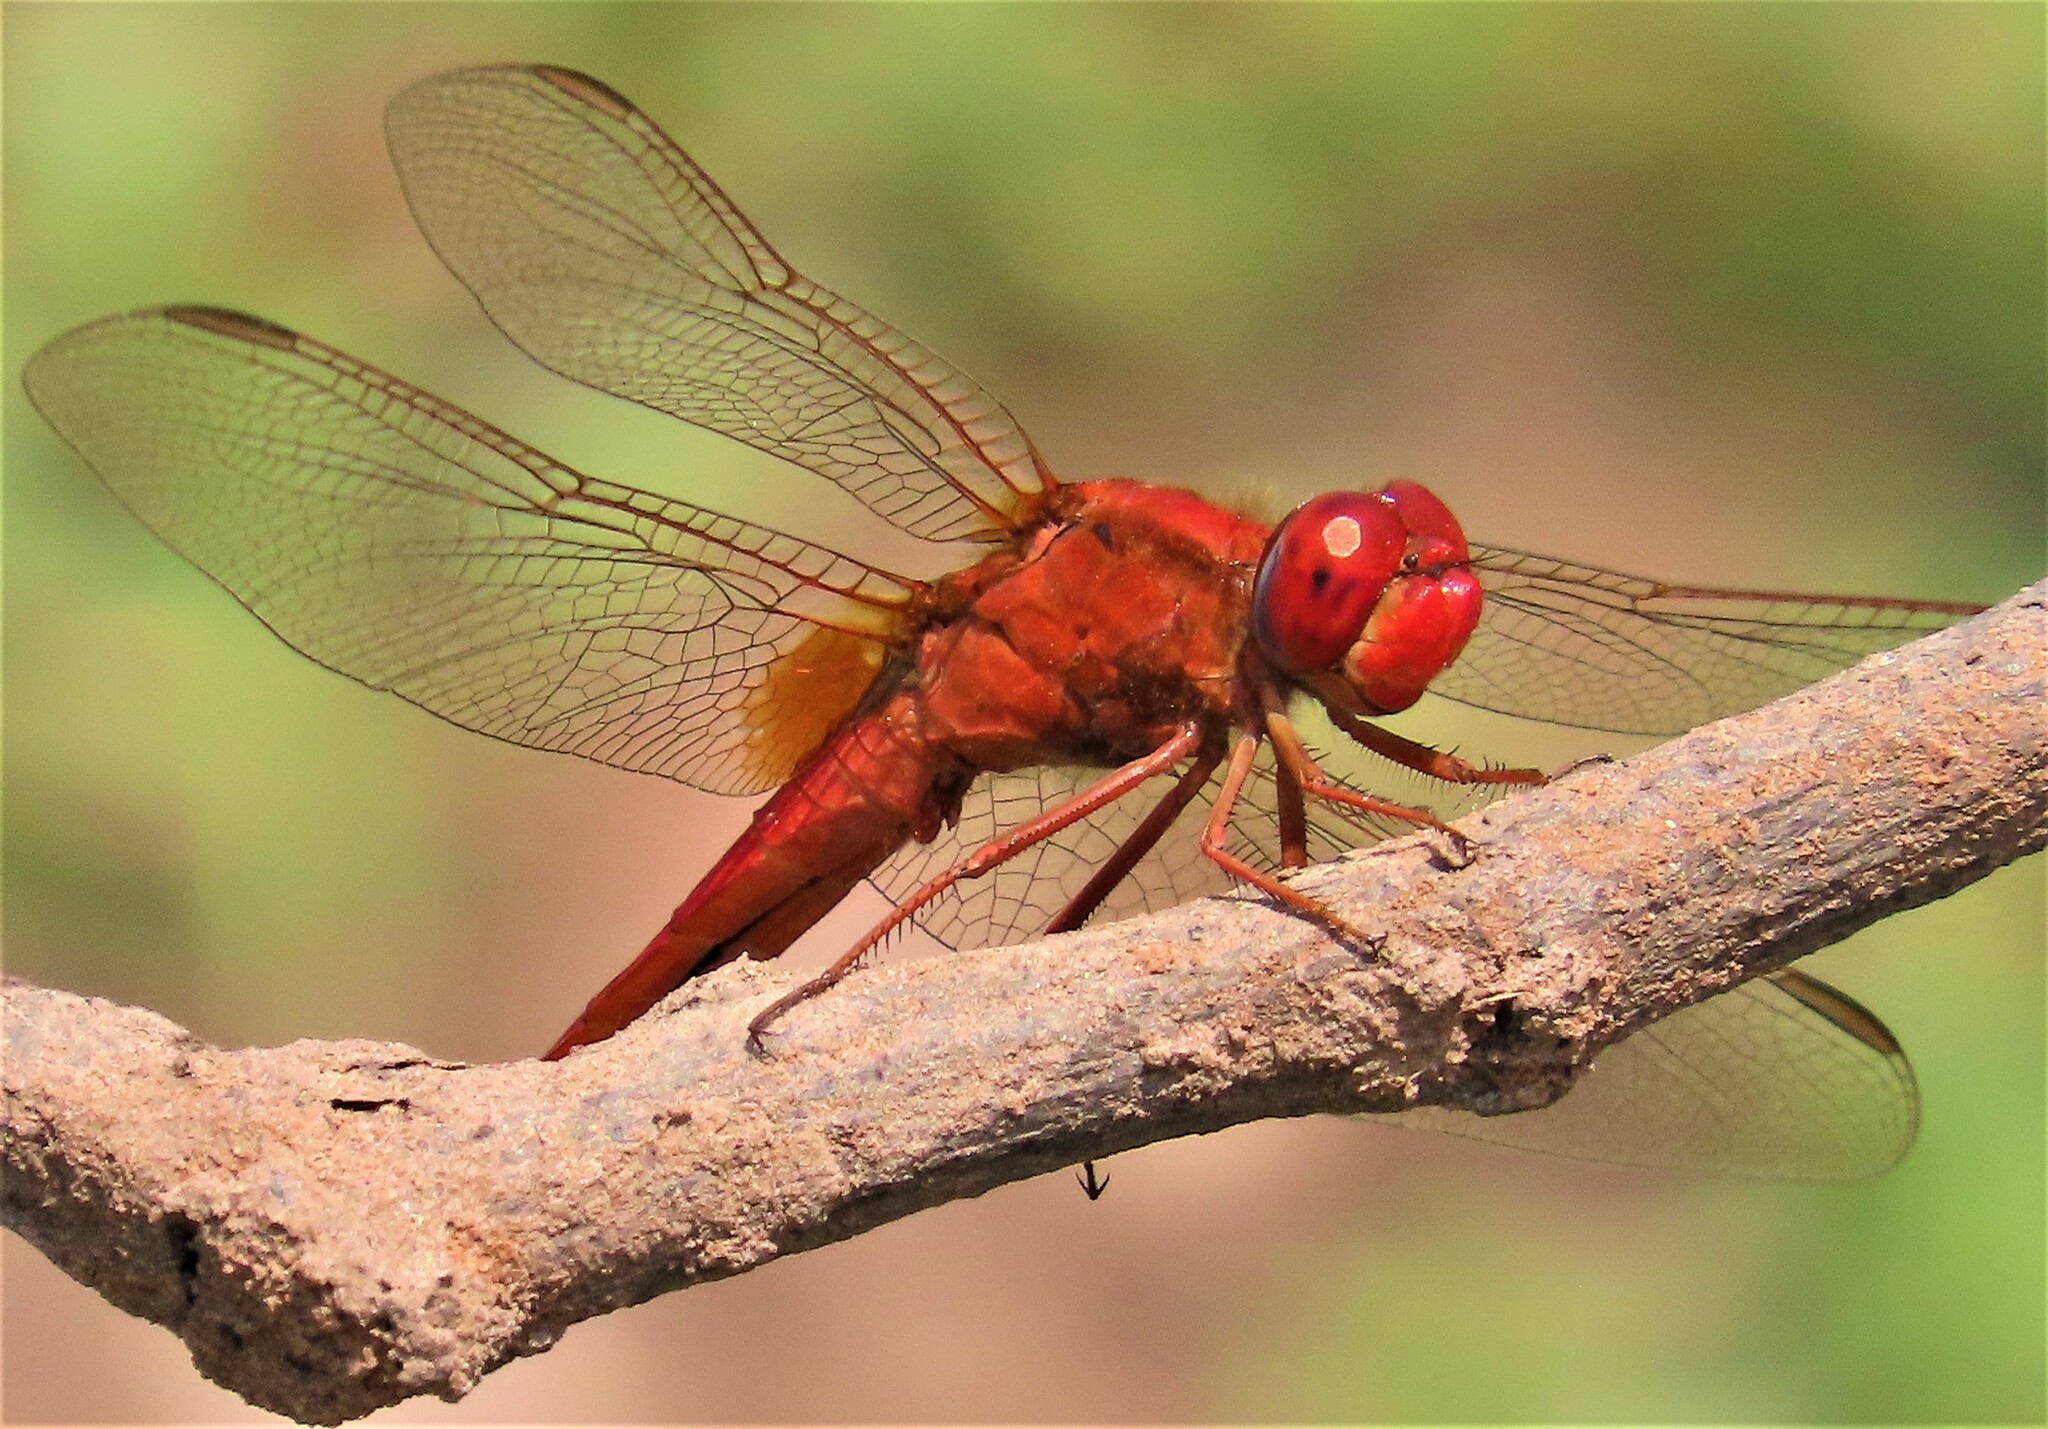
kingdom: Animalia
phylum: Arthropoda
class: Insecta
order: Odonata
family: Libellulidae
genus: Crocothemis
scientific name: Crocothemis erythraea
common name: Scarlet dragonfly
